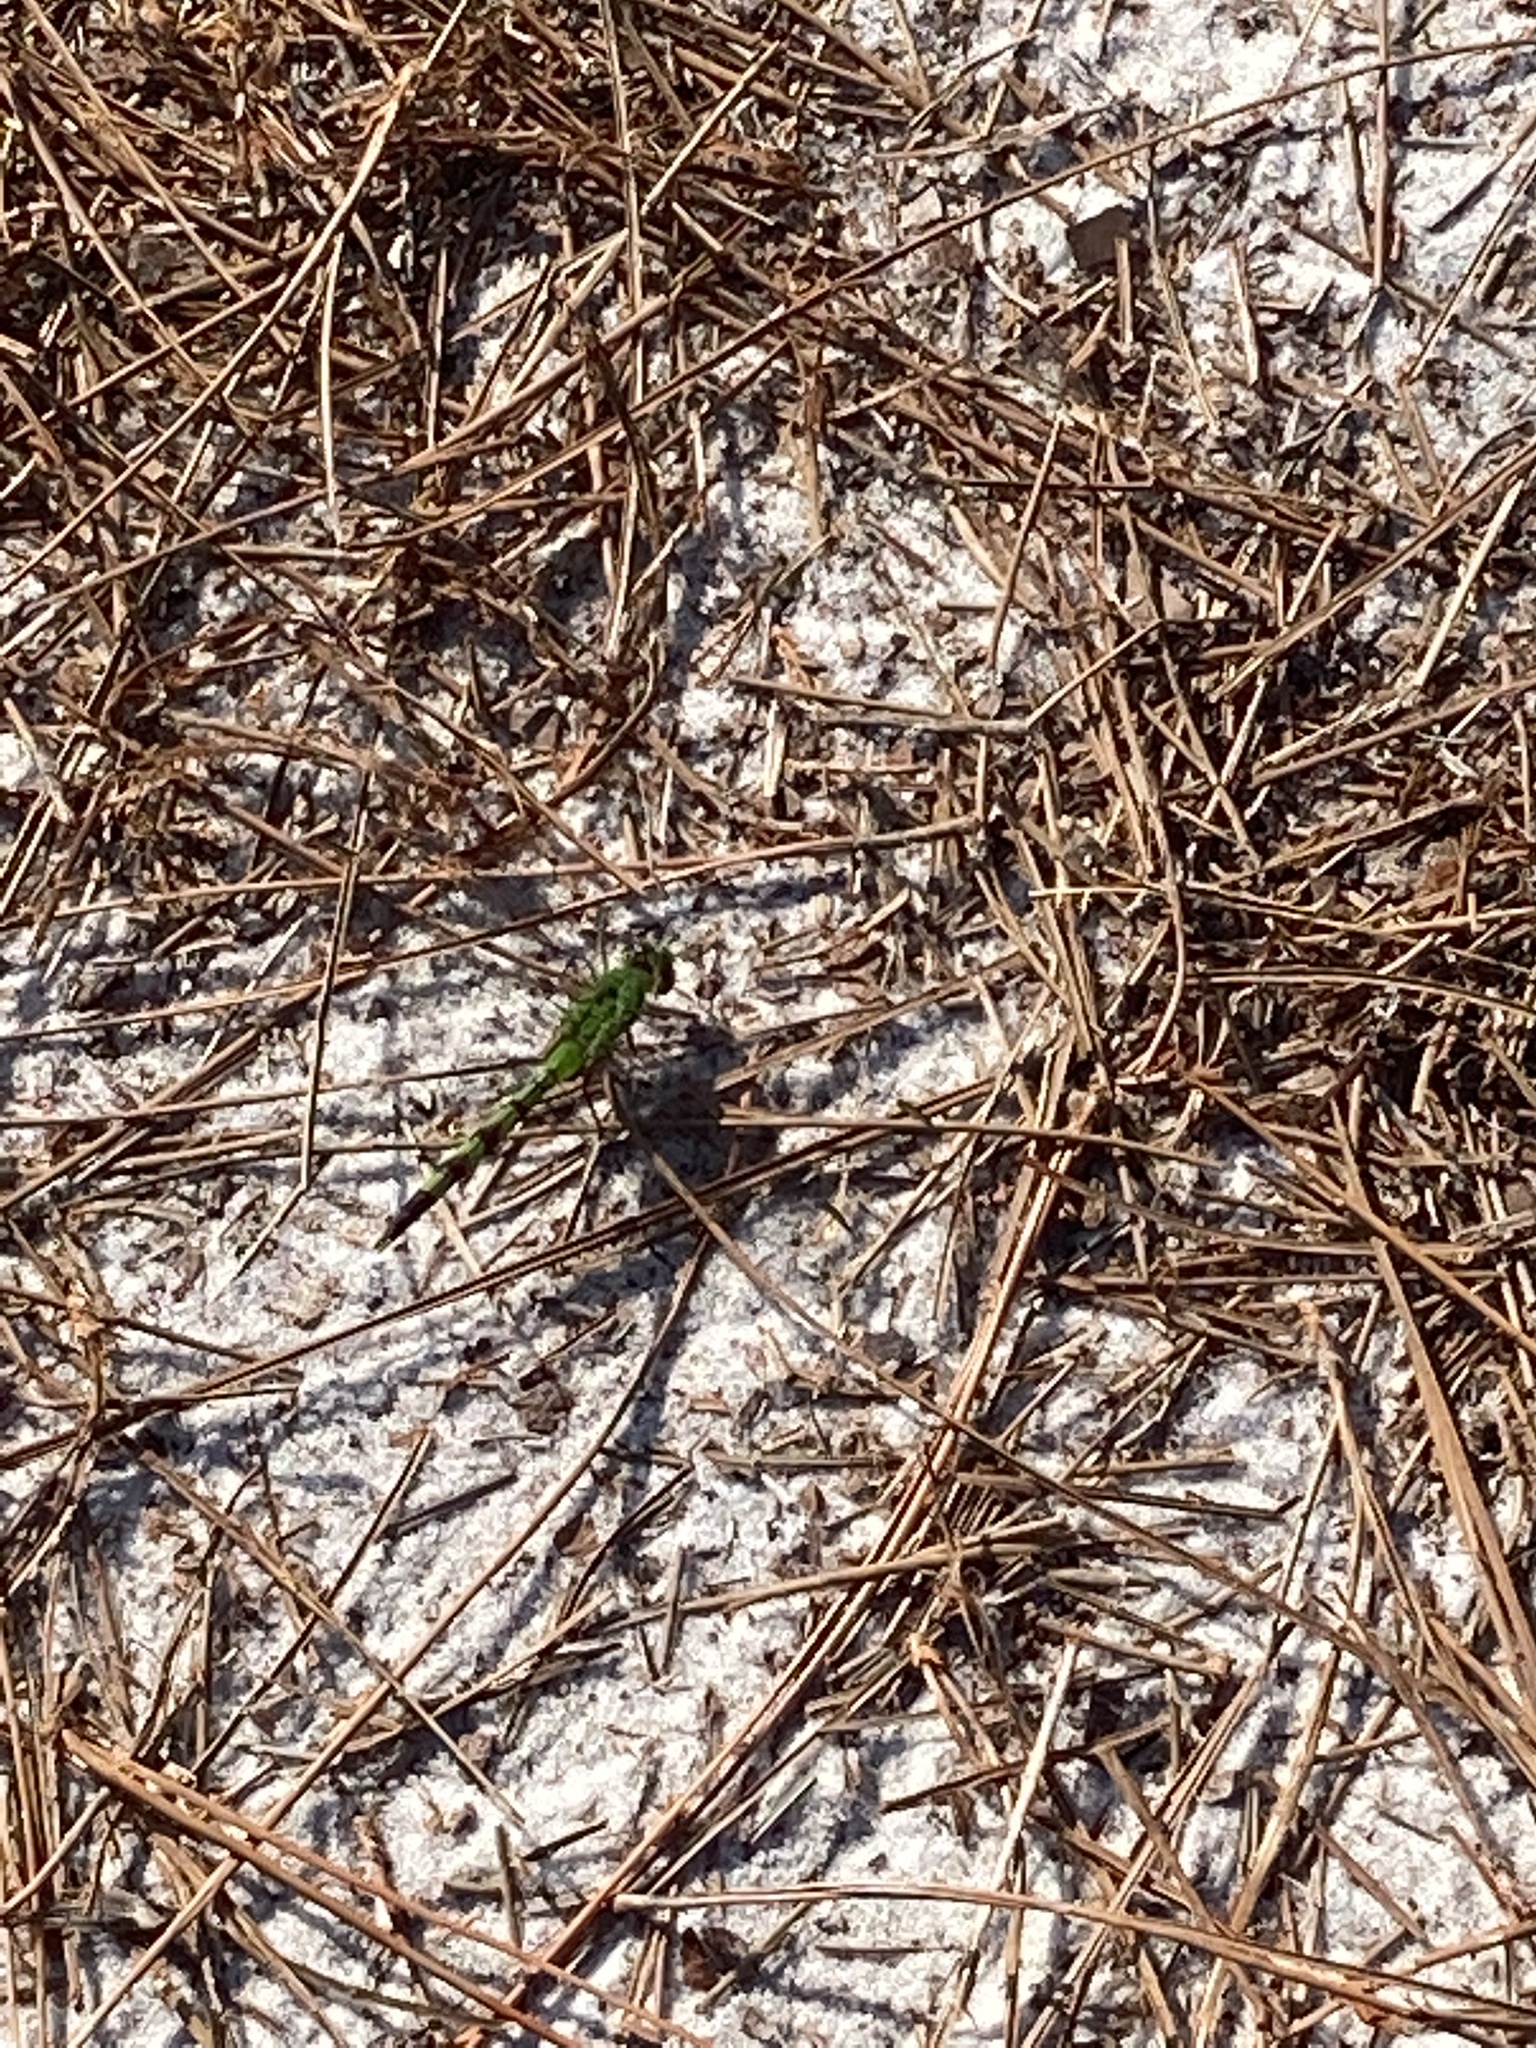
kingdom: Animalia
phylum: Arthropoda
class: Insecta
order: Odonata
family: Libellulidae
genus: Erythemis
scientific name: Erythemis vesiculosa
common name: Great pondhawk
